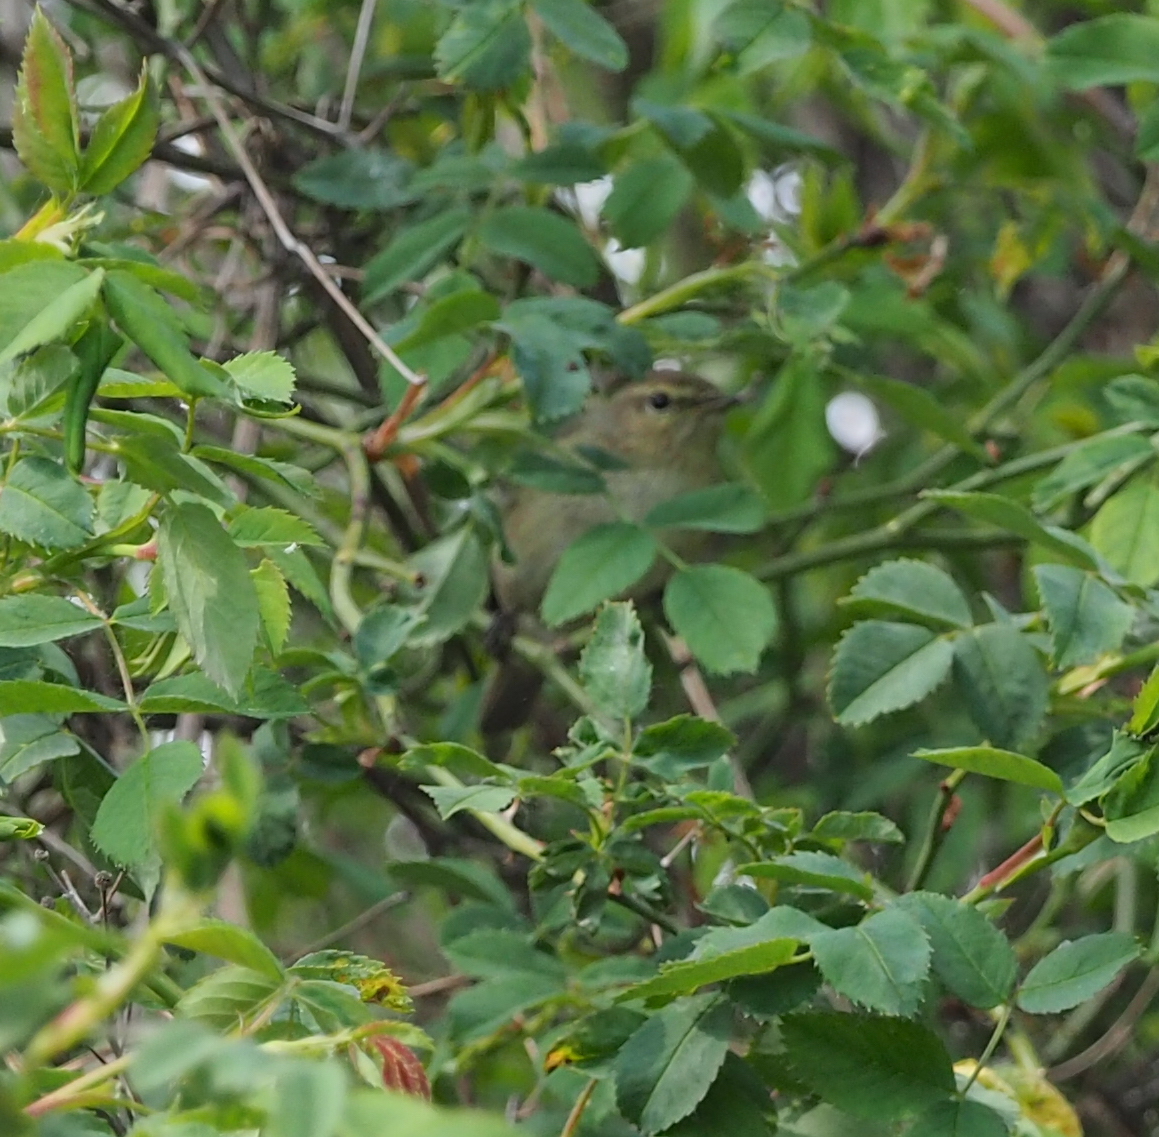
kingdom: Animalia
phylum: Chordata
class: Aves
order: Passeriformes
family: Phylloscopidae
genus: Phylloscopus
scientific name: Phylloscopus collybita
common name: Common chiffchaff
